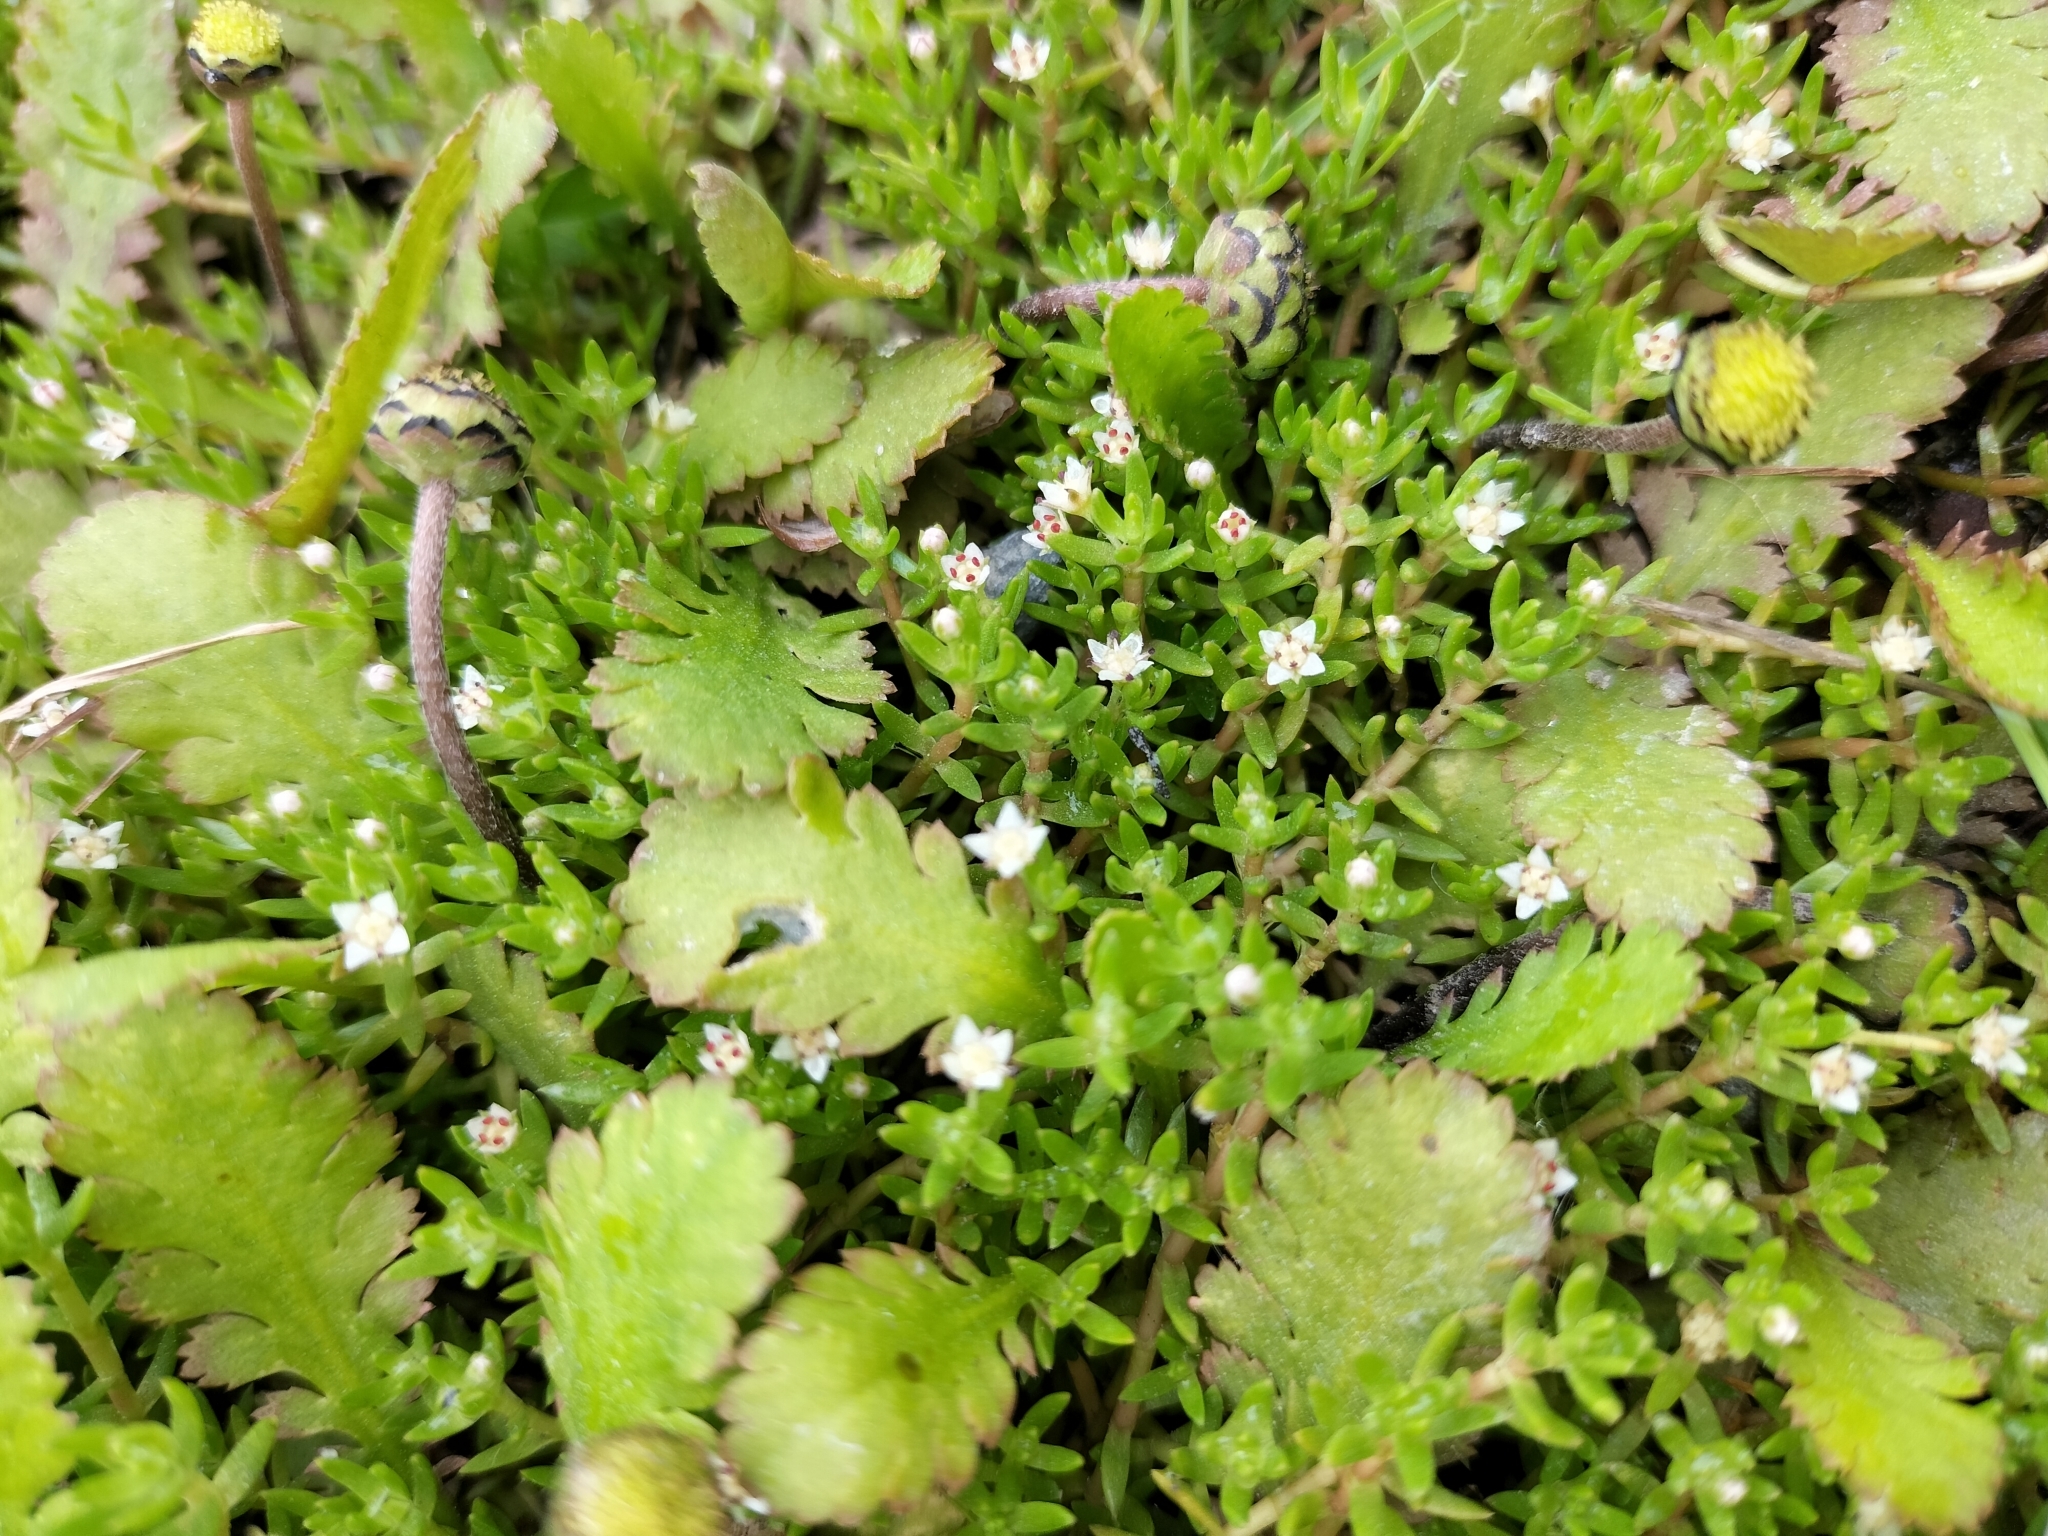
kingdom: Plantae
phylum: Tracheophyta
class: Magnoliopsida
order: Saxifragales
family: Crassulaceae
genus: Crassula
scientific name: Crassula sinclairii
